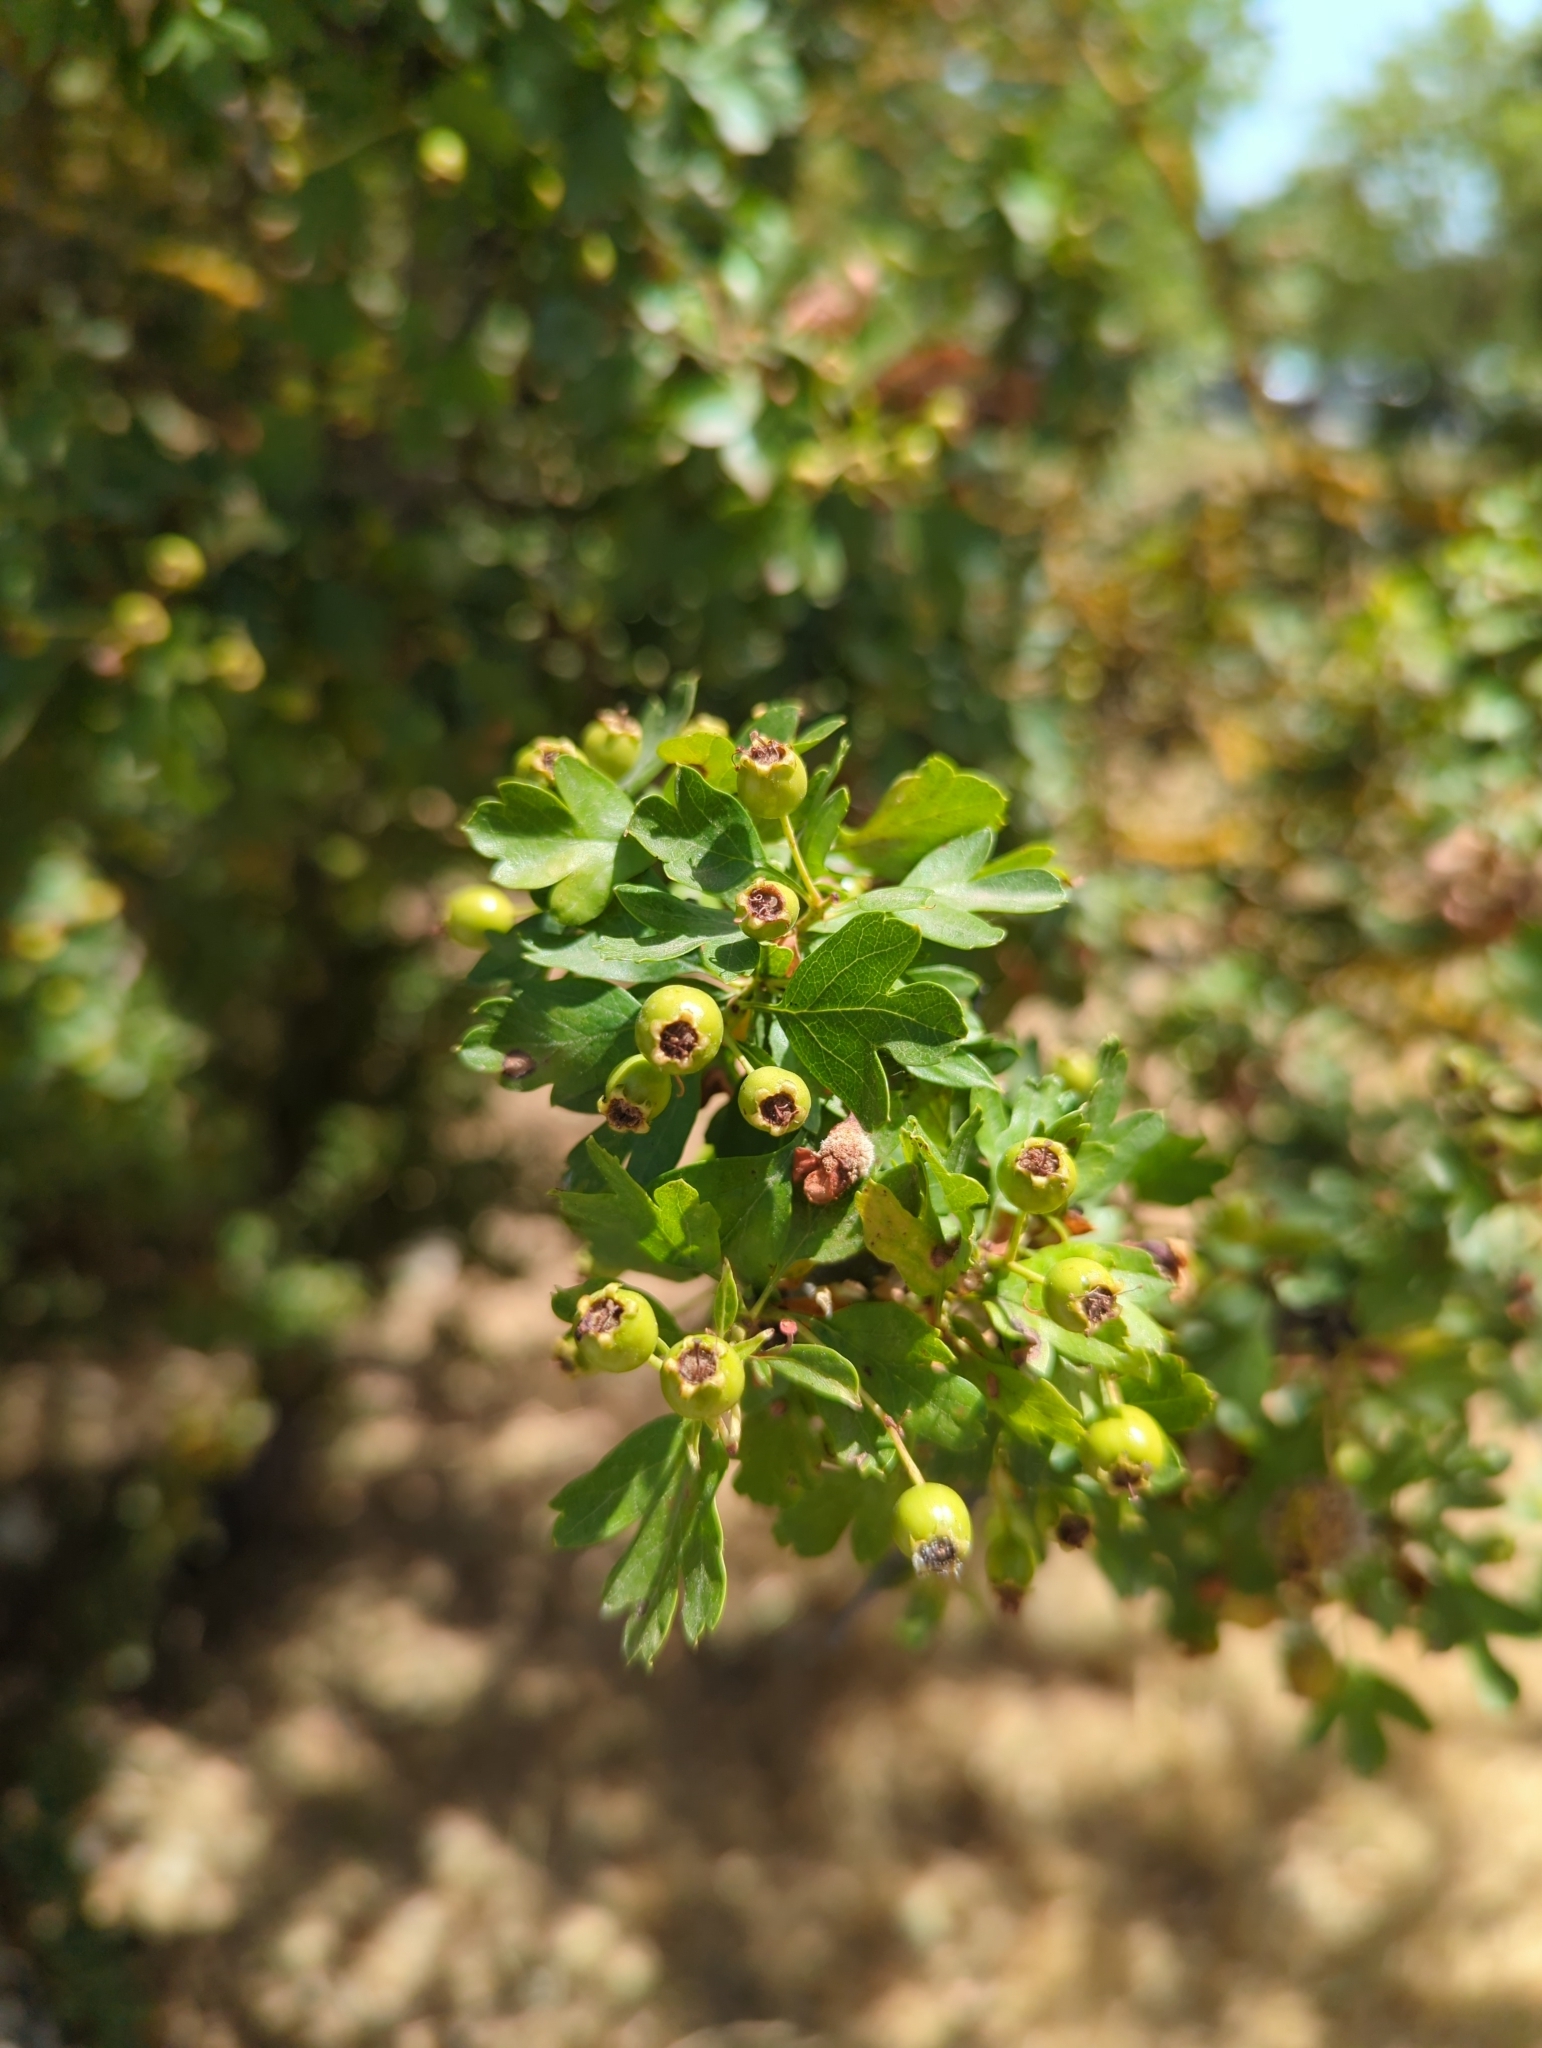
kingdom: Plantae
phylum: Tracheophyta
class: Magnoliopsida
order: Rosales
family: Rosaceae
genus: Crataegus
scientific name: Crataegus monogyna
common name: Hawthorn
